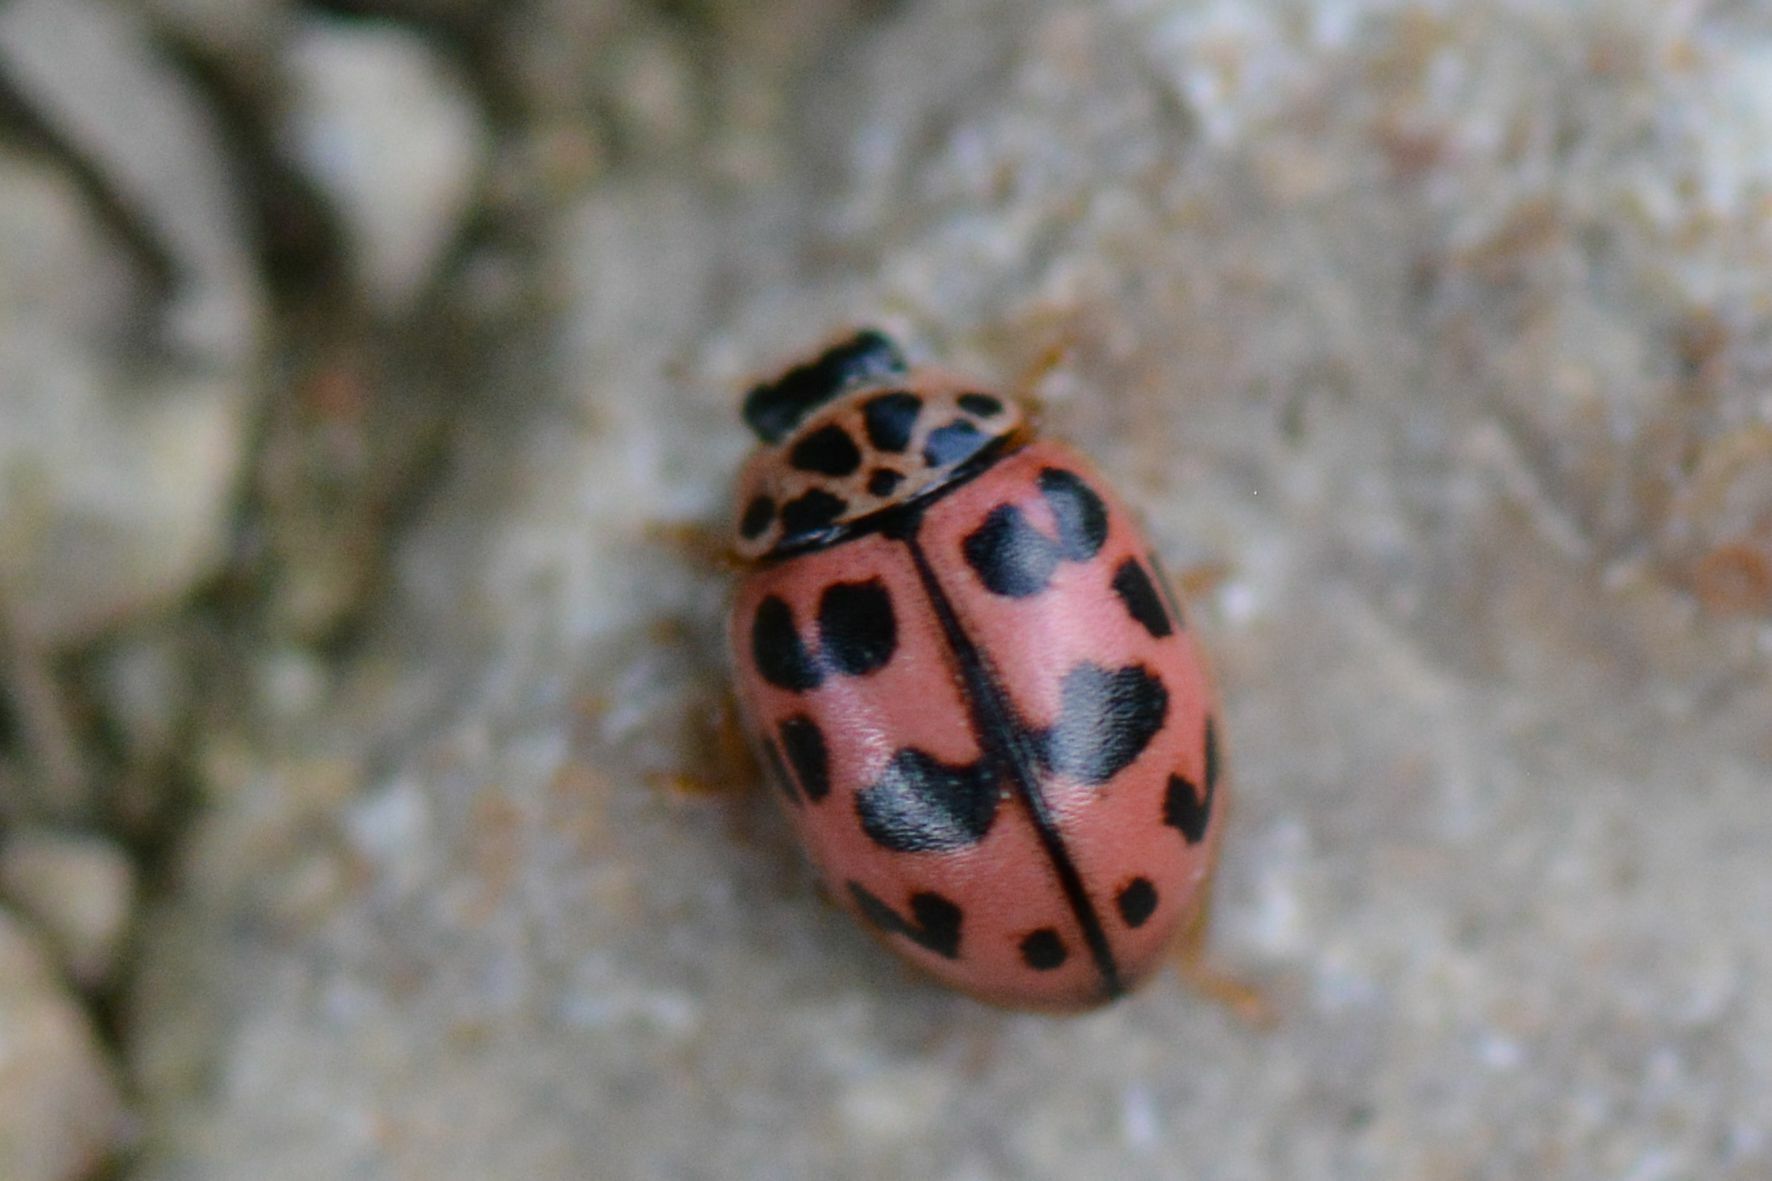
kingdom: Animalia
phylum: Arthropoda
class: Insecta
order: Coleoptera
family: Coccinellidae
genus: Oenopia
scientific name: Oenopia conglobata
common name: Ladybird beetle
